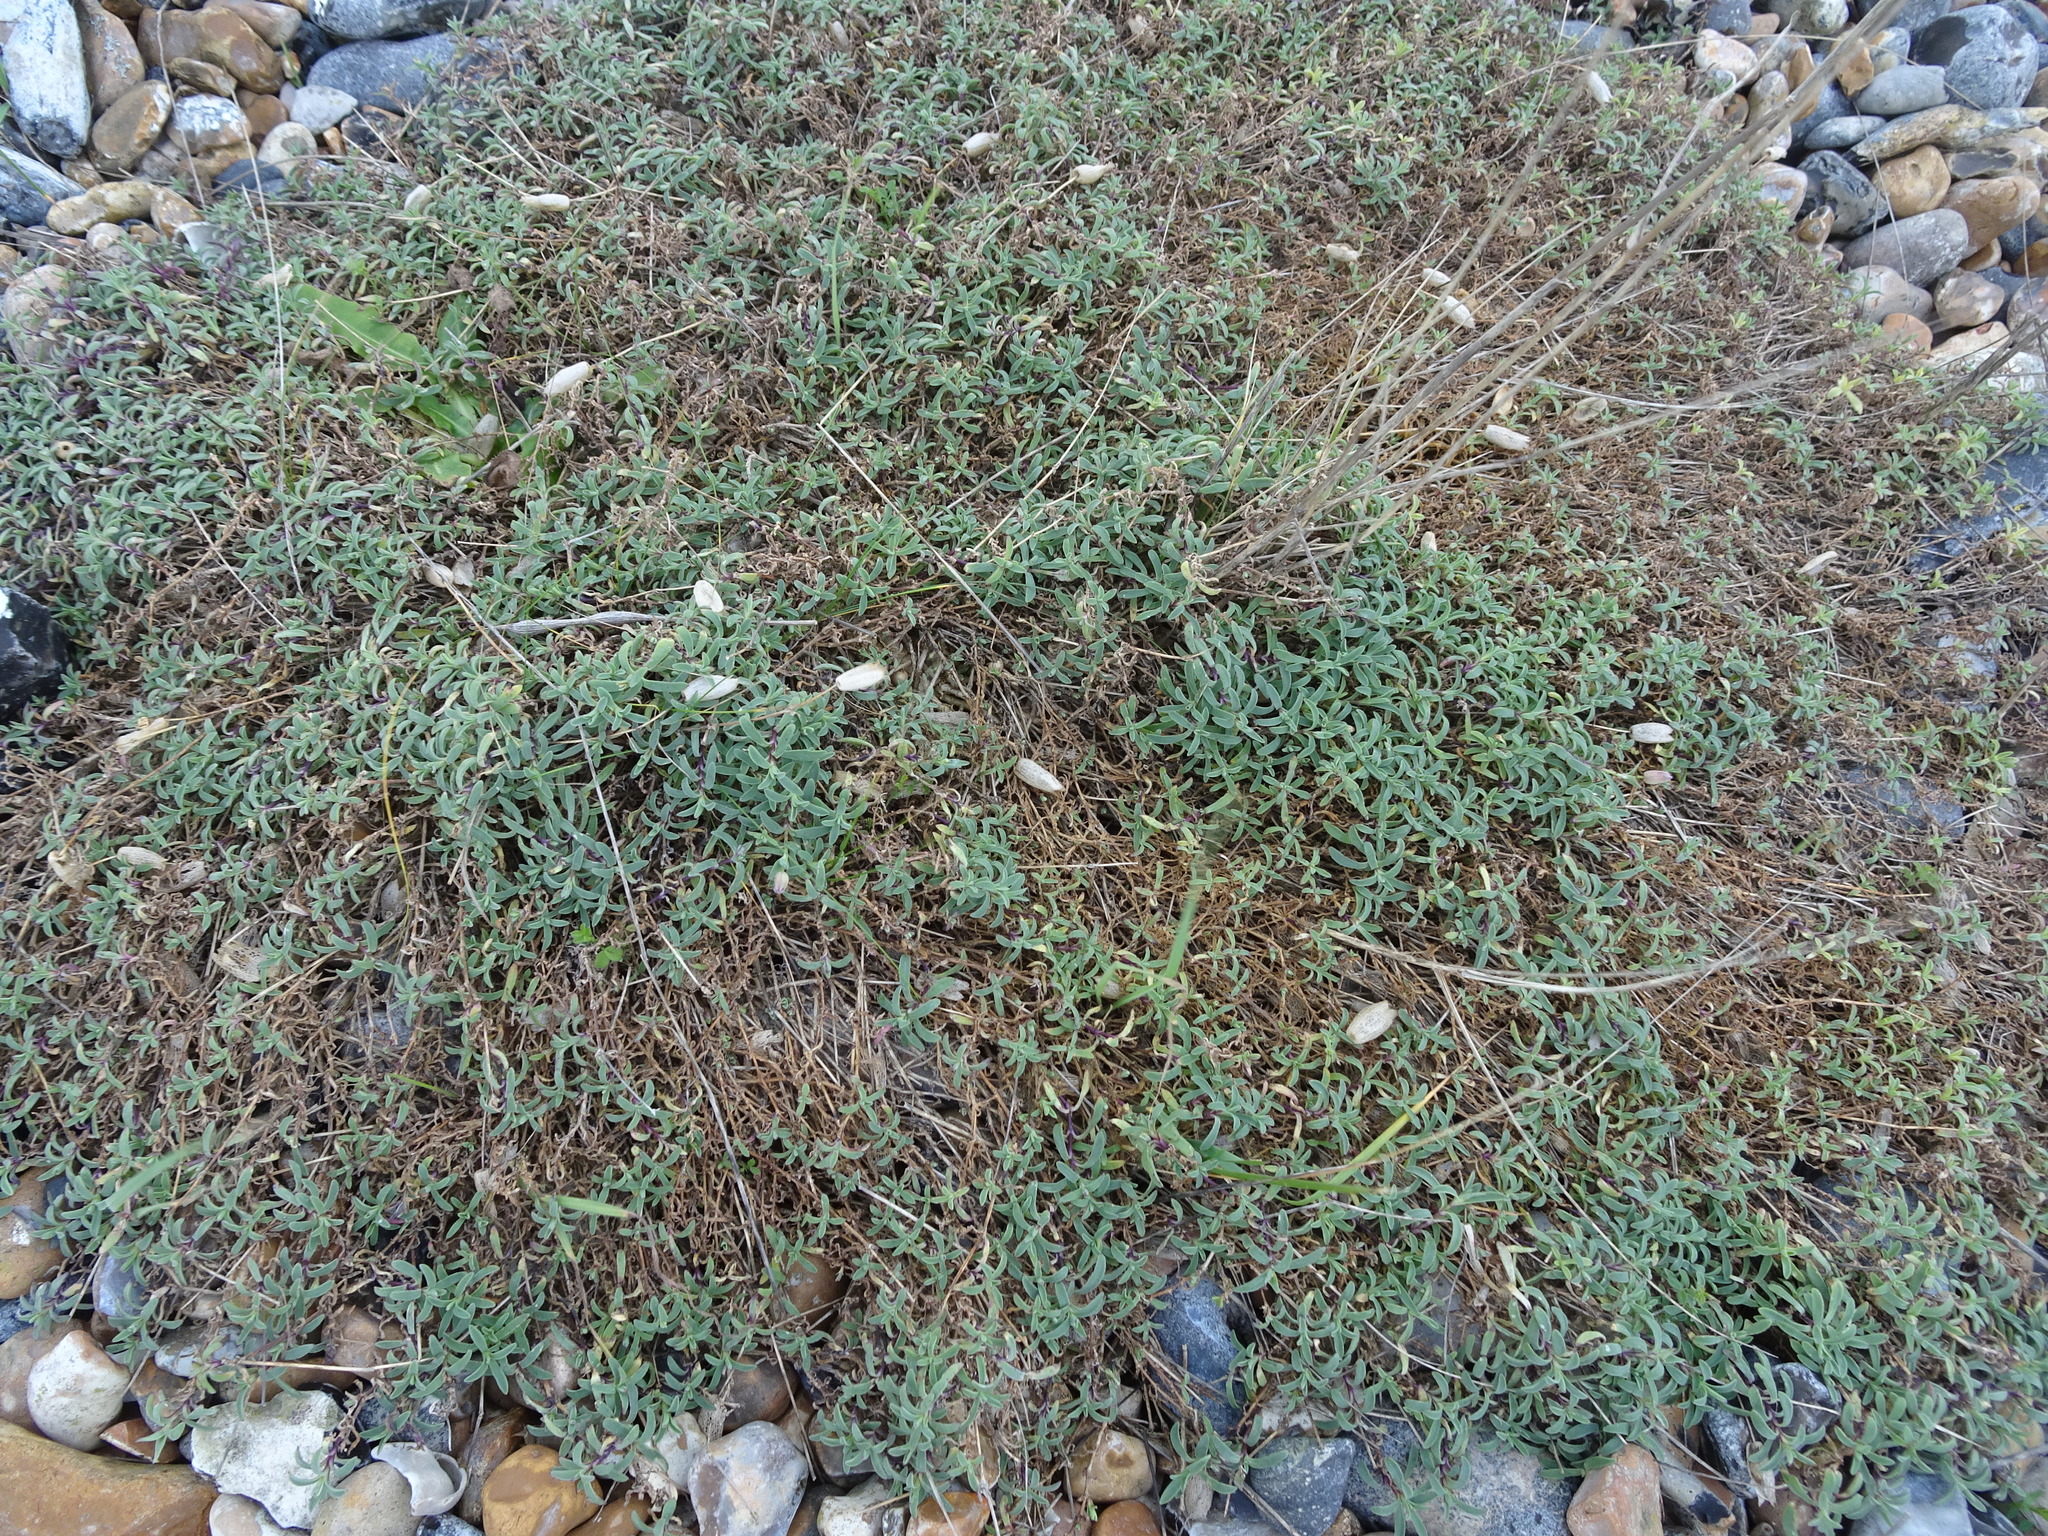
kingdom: Plantae
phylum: Tracheophyta
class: Magnoliopsida
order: Caryophyllales
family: Caryophyllaceae
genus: Silene
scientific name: Silene uniflora
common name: Sea campion
